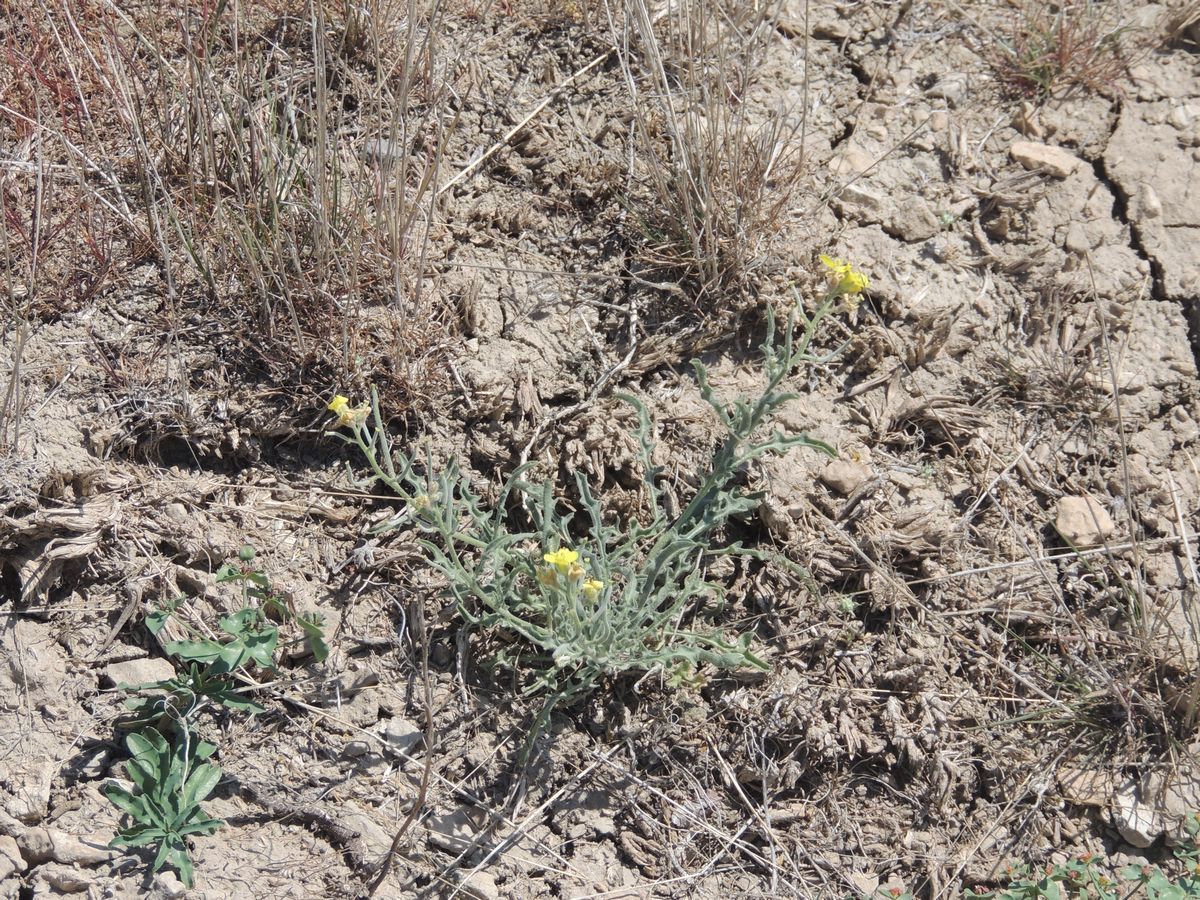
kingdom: Plantae
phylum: Tracheophyta
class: Magnoliopsida
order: Brassicales
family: Brassicaceae
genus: Sterigmostemum
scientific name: Sterigmostemum caspicum
